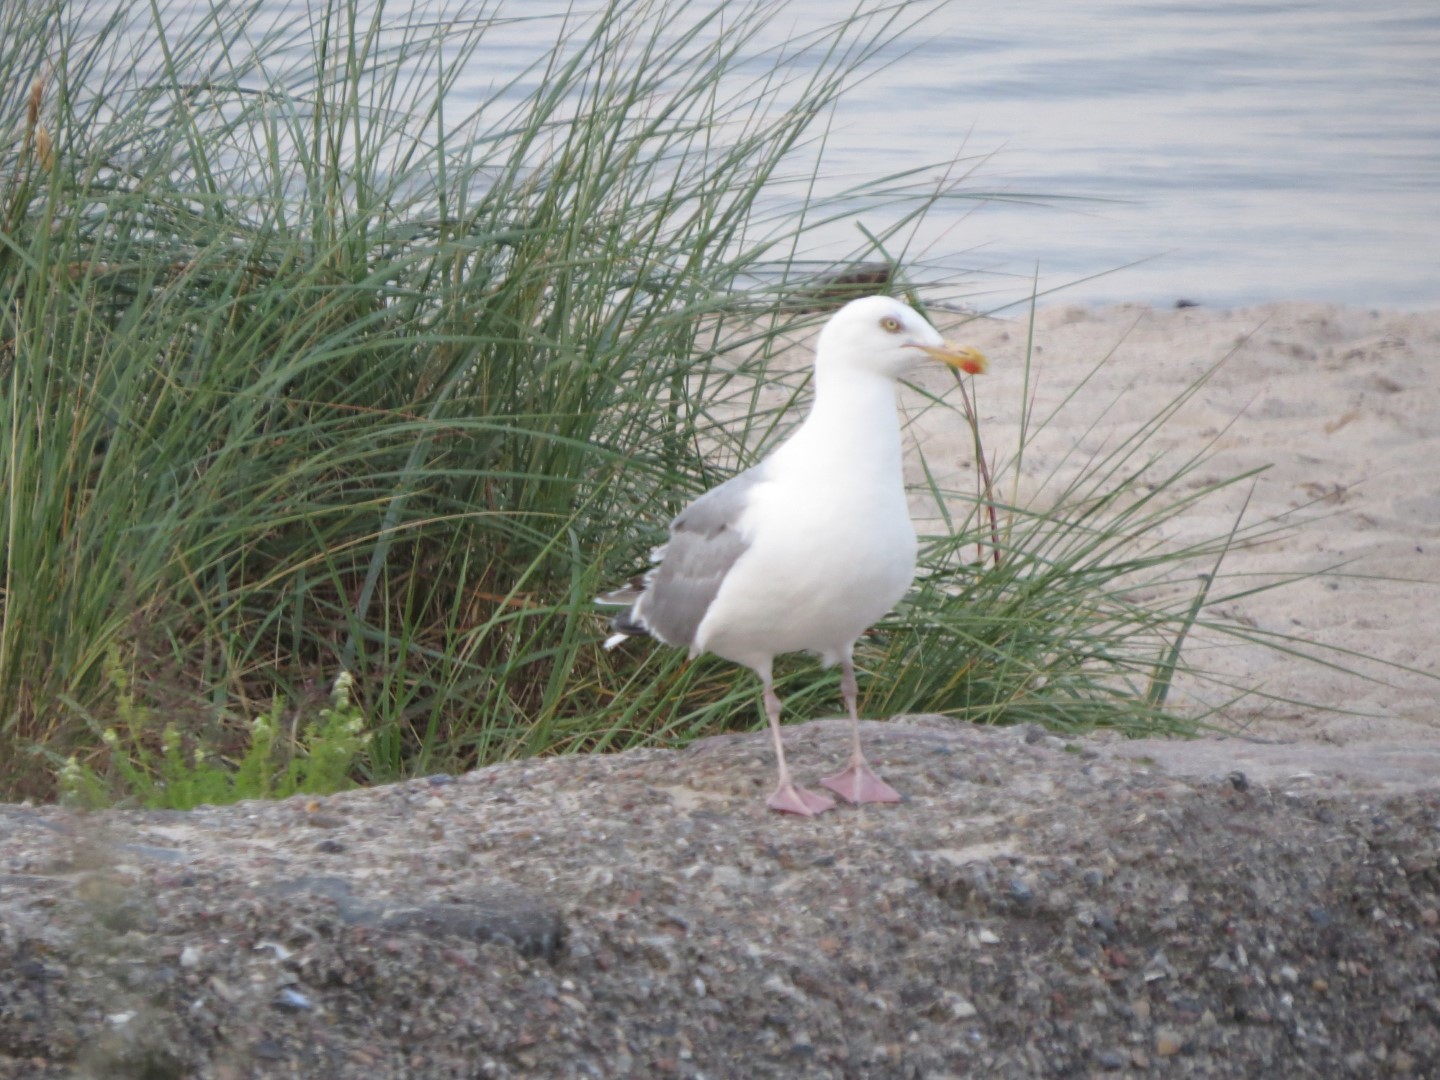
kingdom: Animalia
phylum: Chordata
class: Aves
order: Charadriiformes
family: Laridae
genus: Larus
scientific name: Larus argentatus
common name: Herring gull
